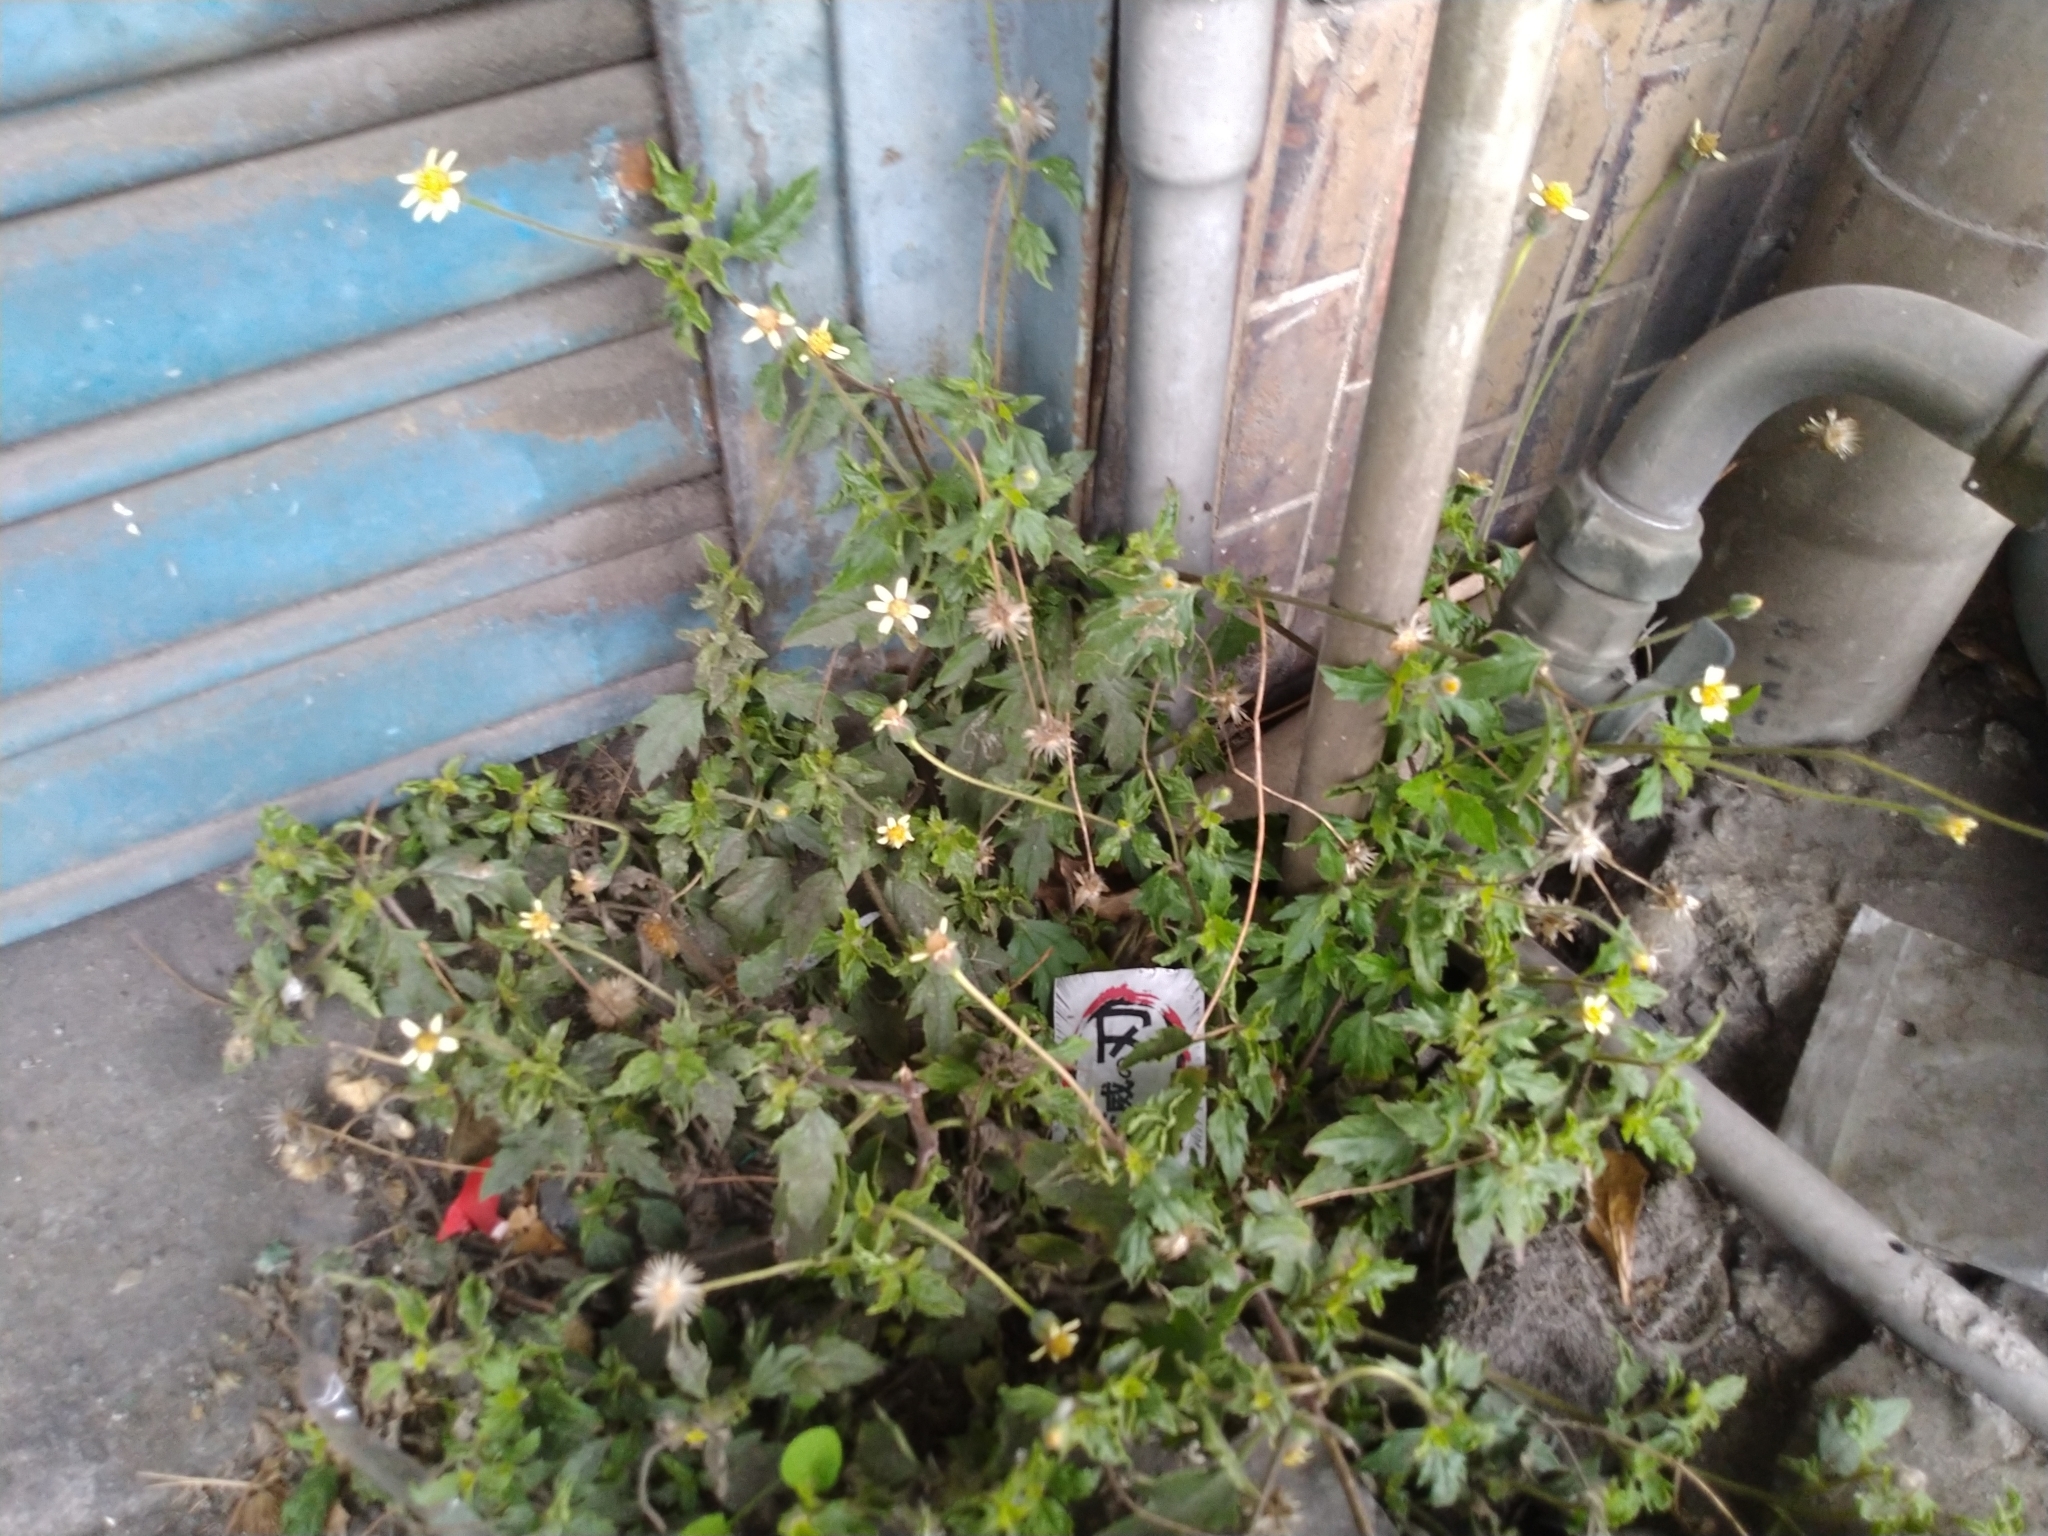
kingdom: Plantae
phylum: Tracheophyta
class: Magnoliopsida
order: Asterales
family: Asteraceae
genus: Tridax
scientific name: Tridax procumbens
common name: Coatbuttons
